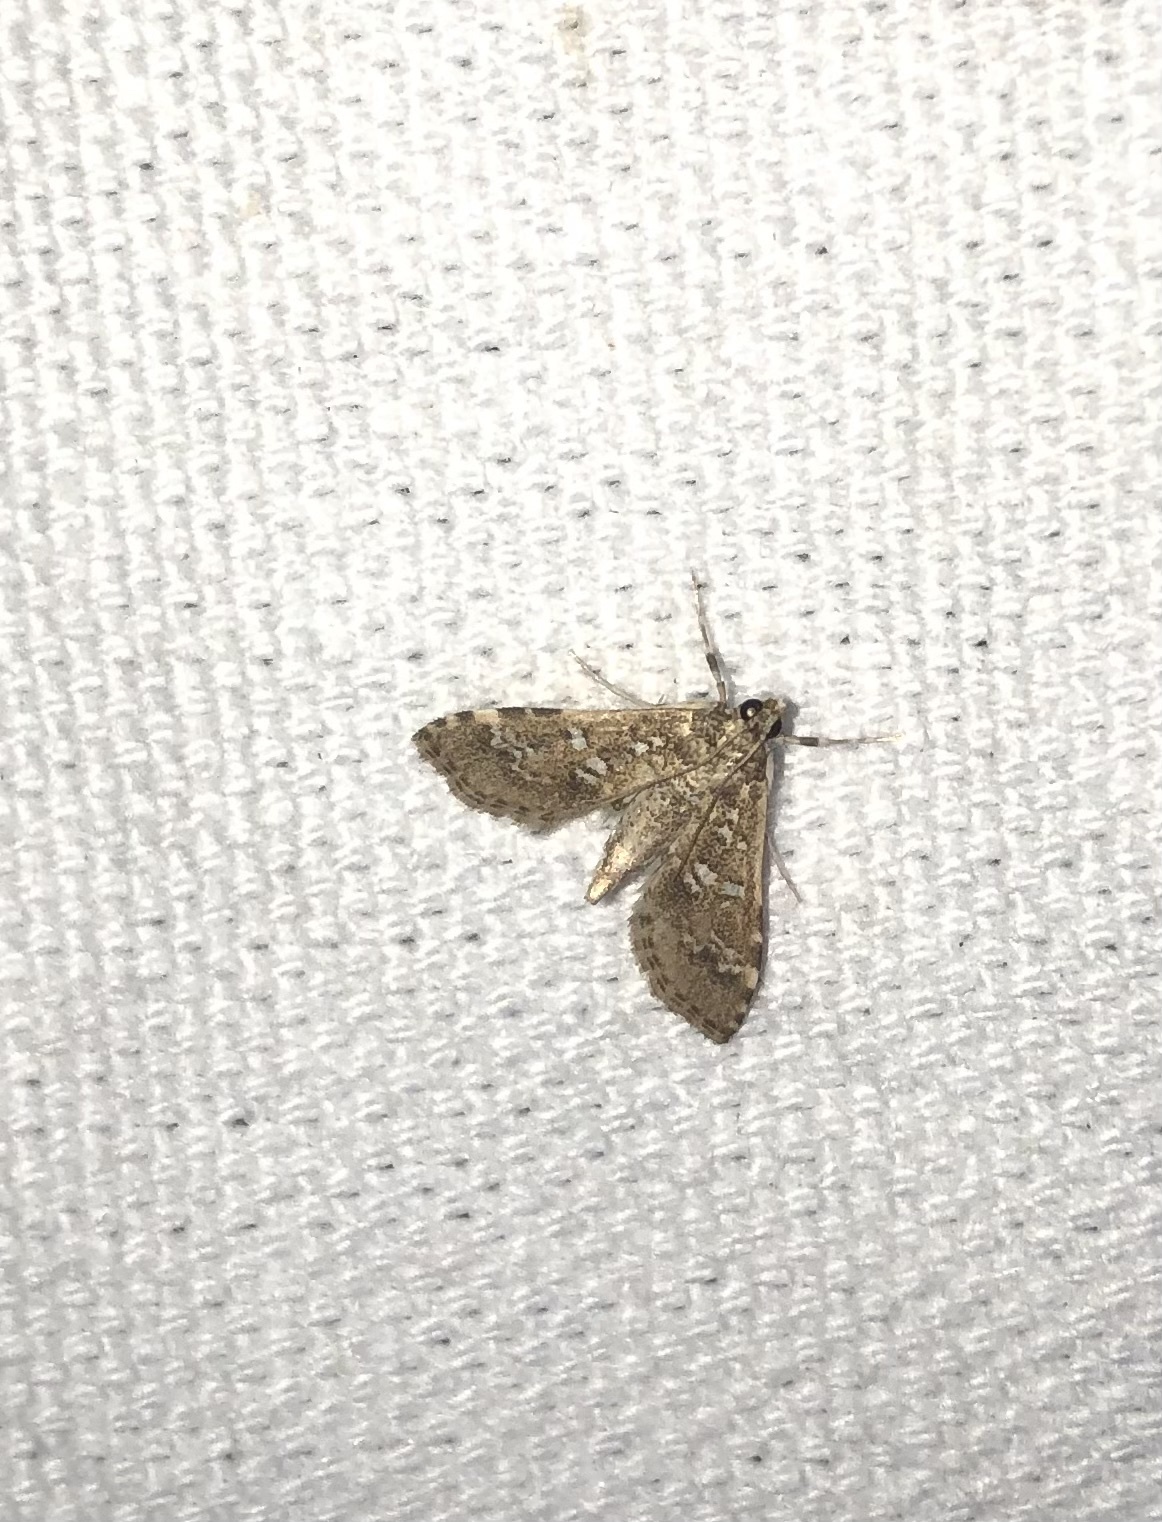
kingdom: Animalia
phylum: Arthropoda
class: Insecta
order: Lepidoptera
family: Crambidae
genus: Samea
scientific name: Samea multiplicalis
